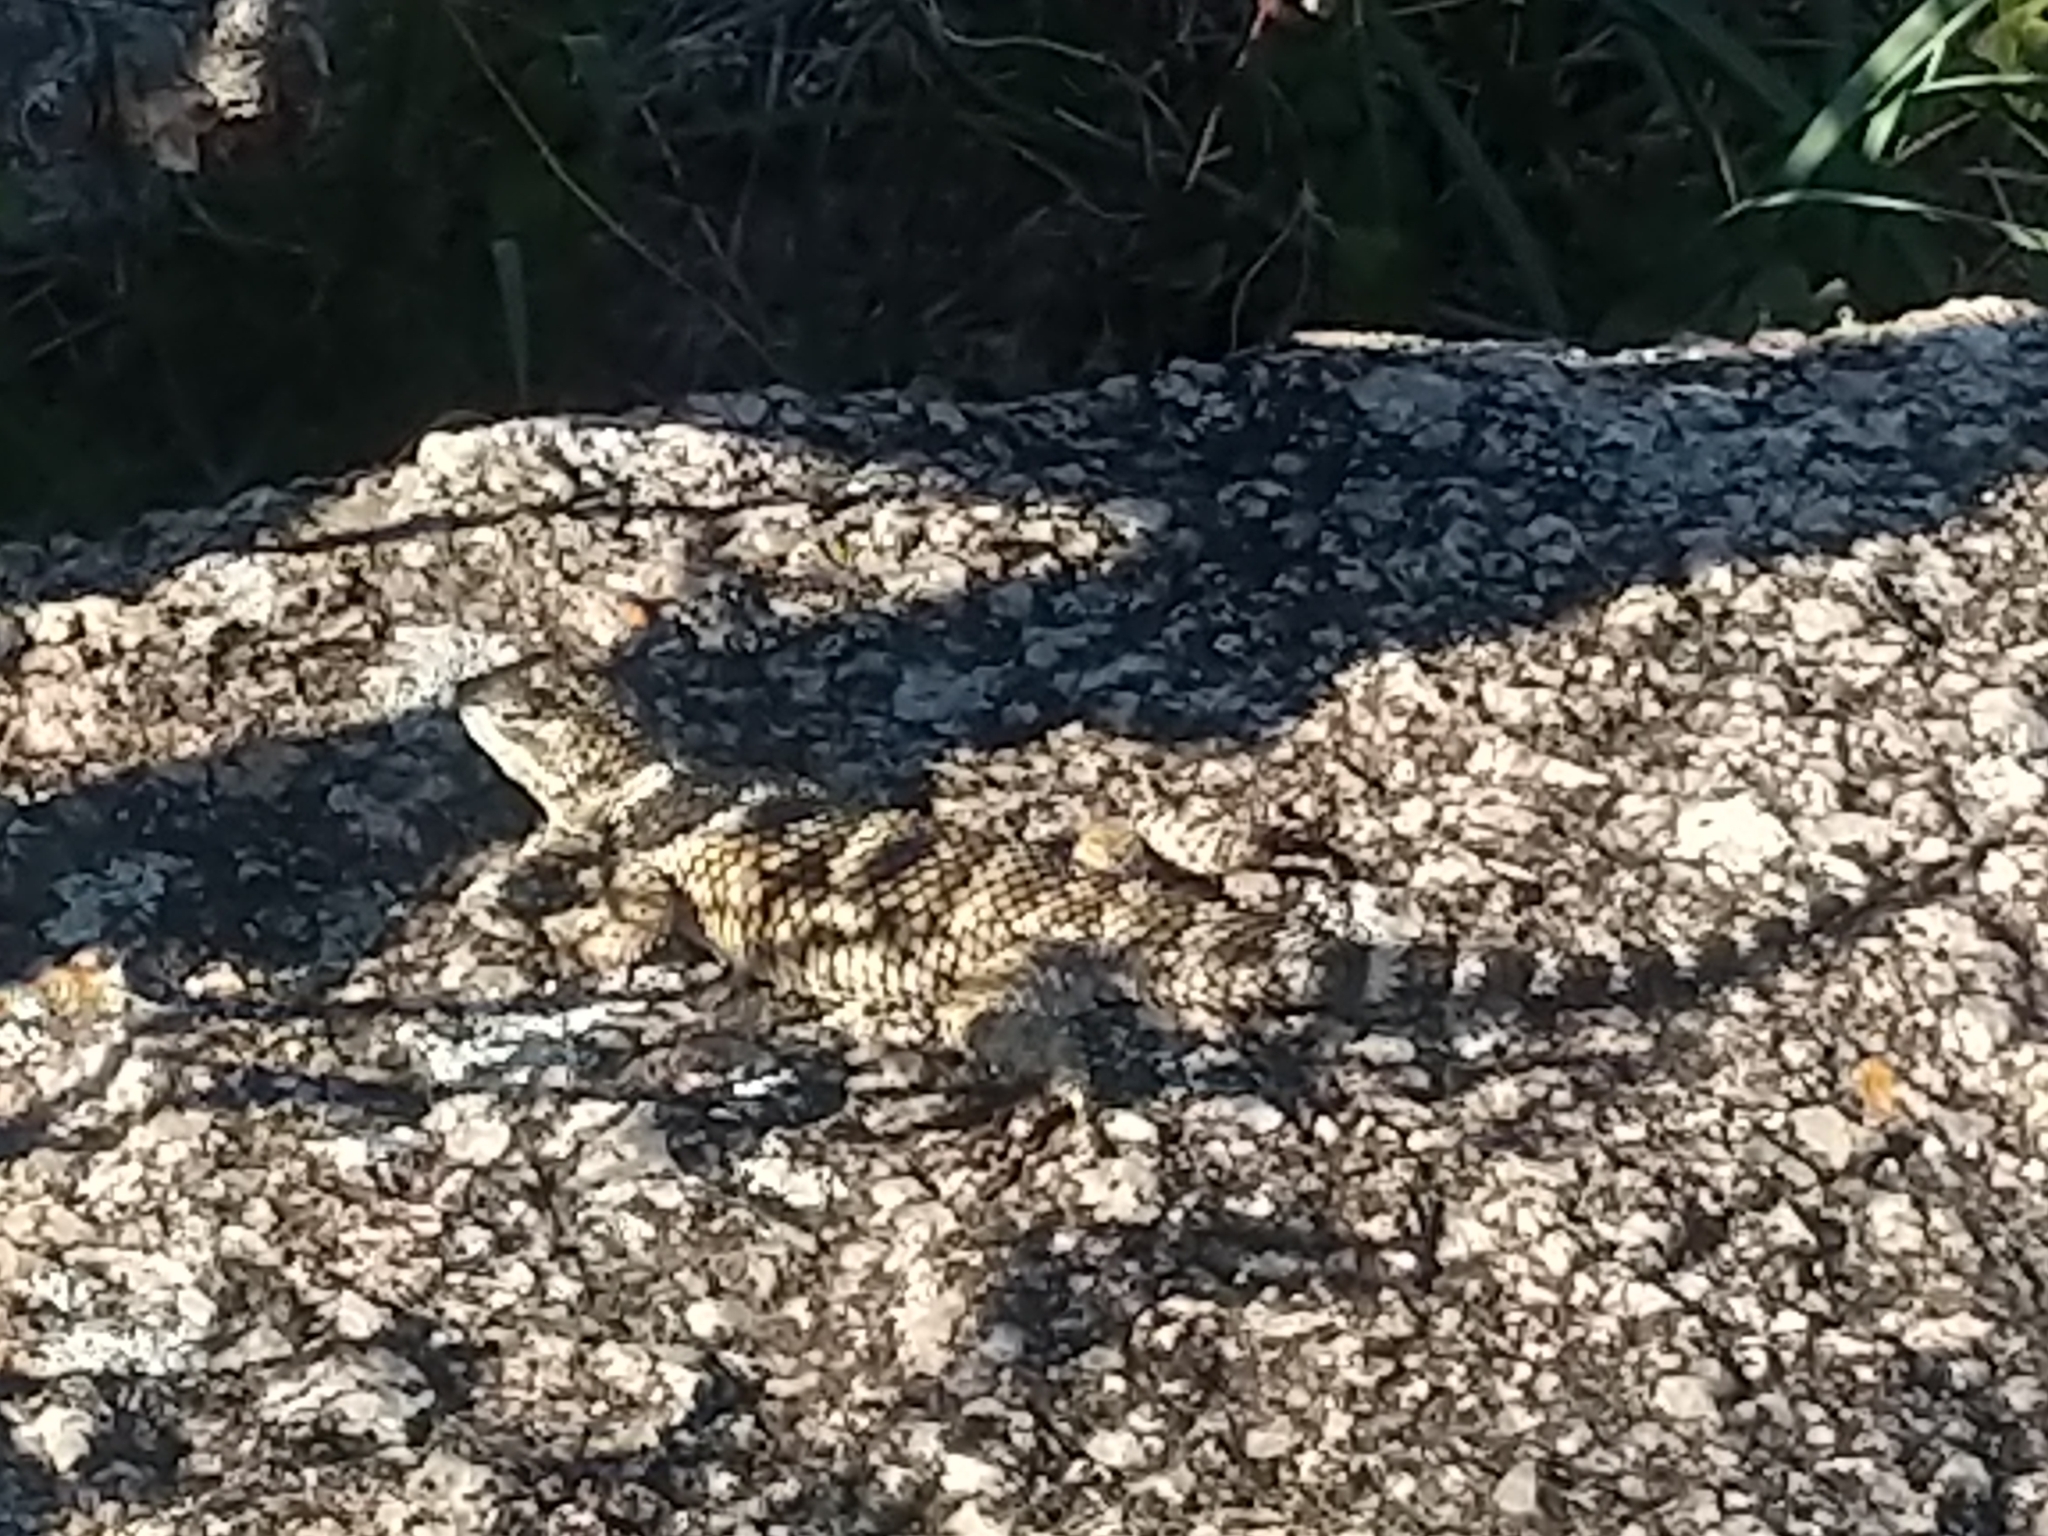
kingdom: Animalia
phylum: Chordata
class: Squamata
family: Phrynosomatidae
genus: Sceloporus
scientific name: Sceloporus poinsettii
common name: Crevice spiny lizard
